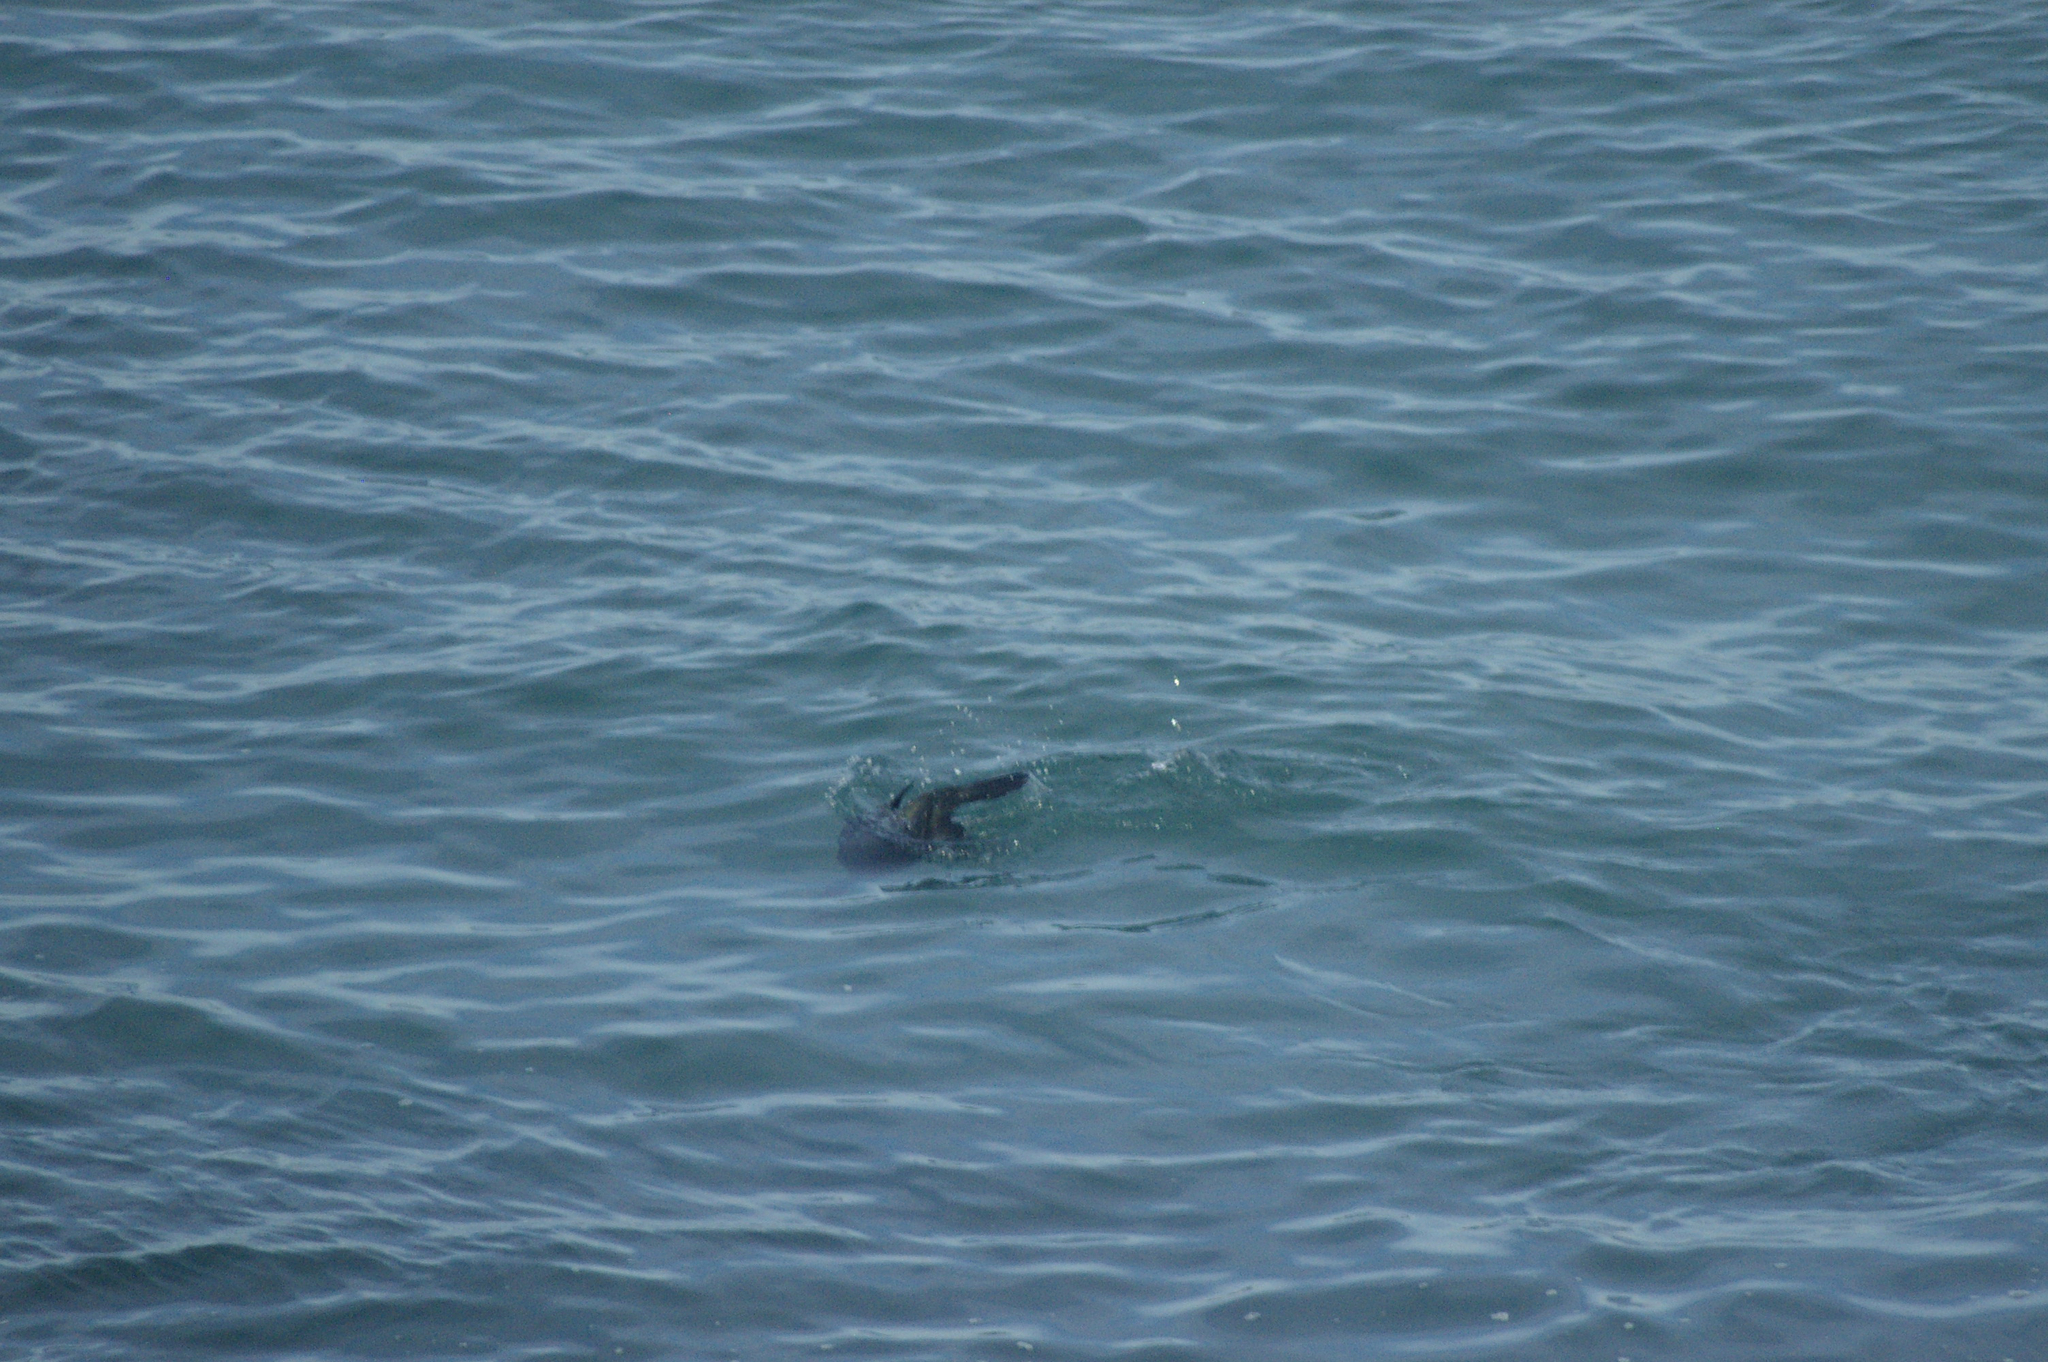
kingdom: Animalia
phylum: Chordata
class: Aves
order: Suliformes
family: Phalacrocoracidae
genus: Urile
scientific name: Urile penicillatus
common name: Brandt's cormorant
